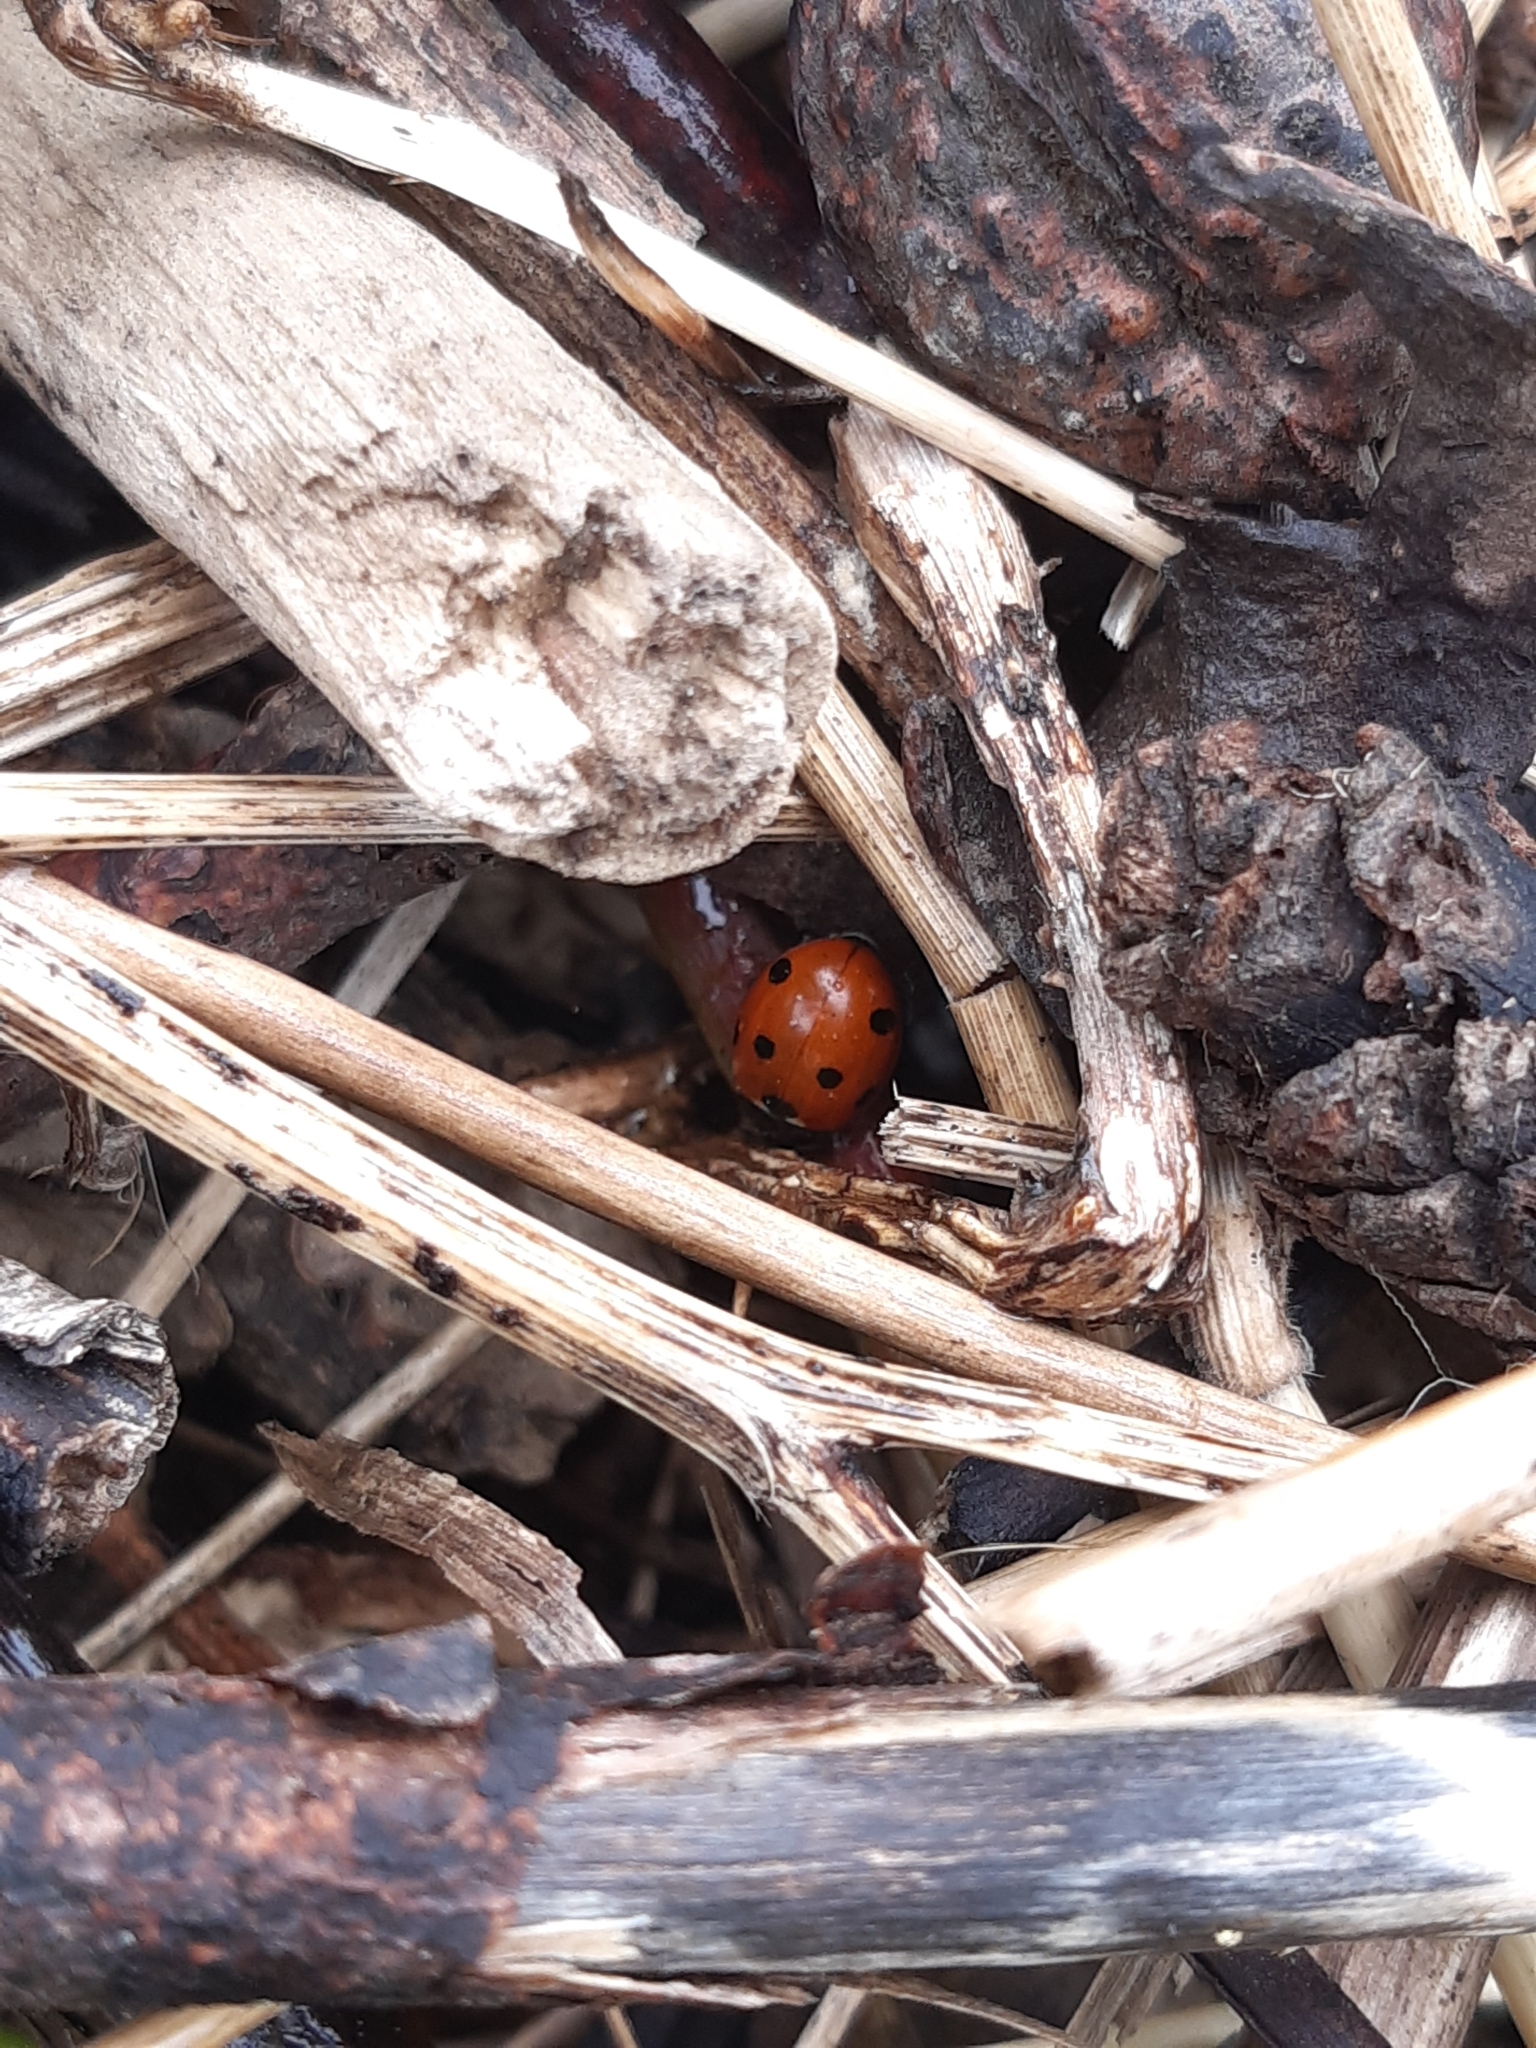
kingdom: Animalia
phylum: Arthropoda
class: Insecta
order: Coleoptera
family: Coccinellidae
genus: Coccinella
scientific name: Coccinella septempunctata
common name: Sevenspotted lady beetle
